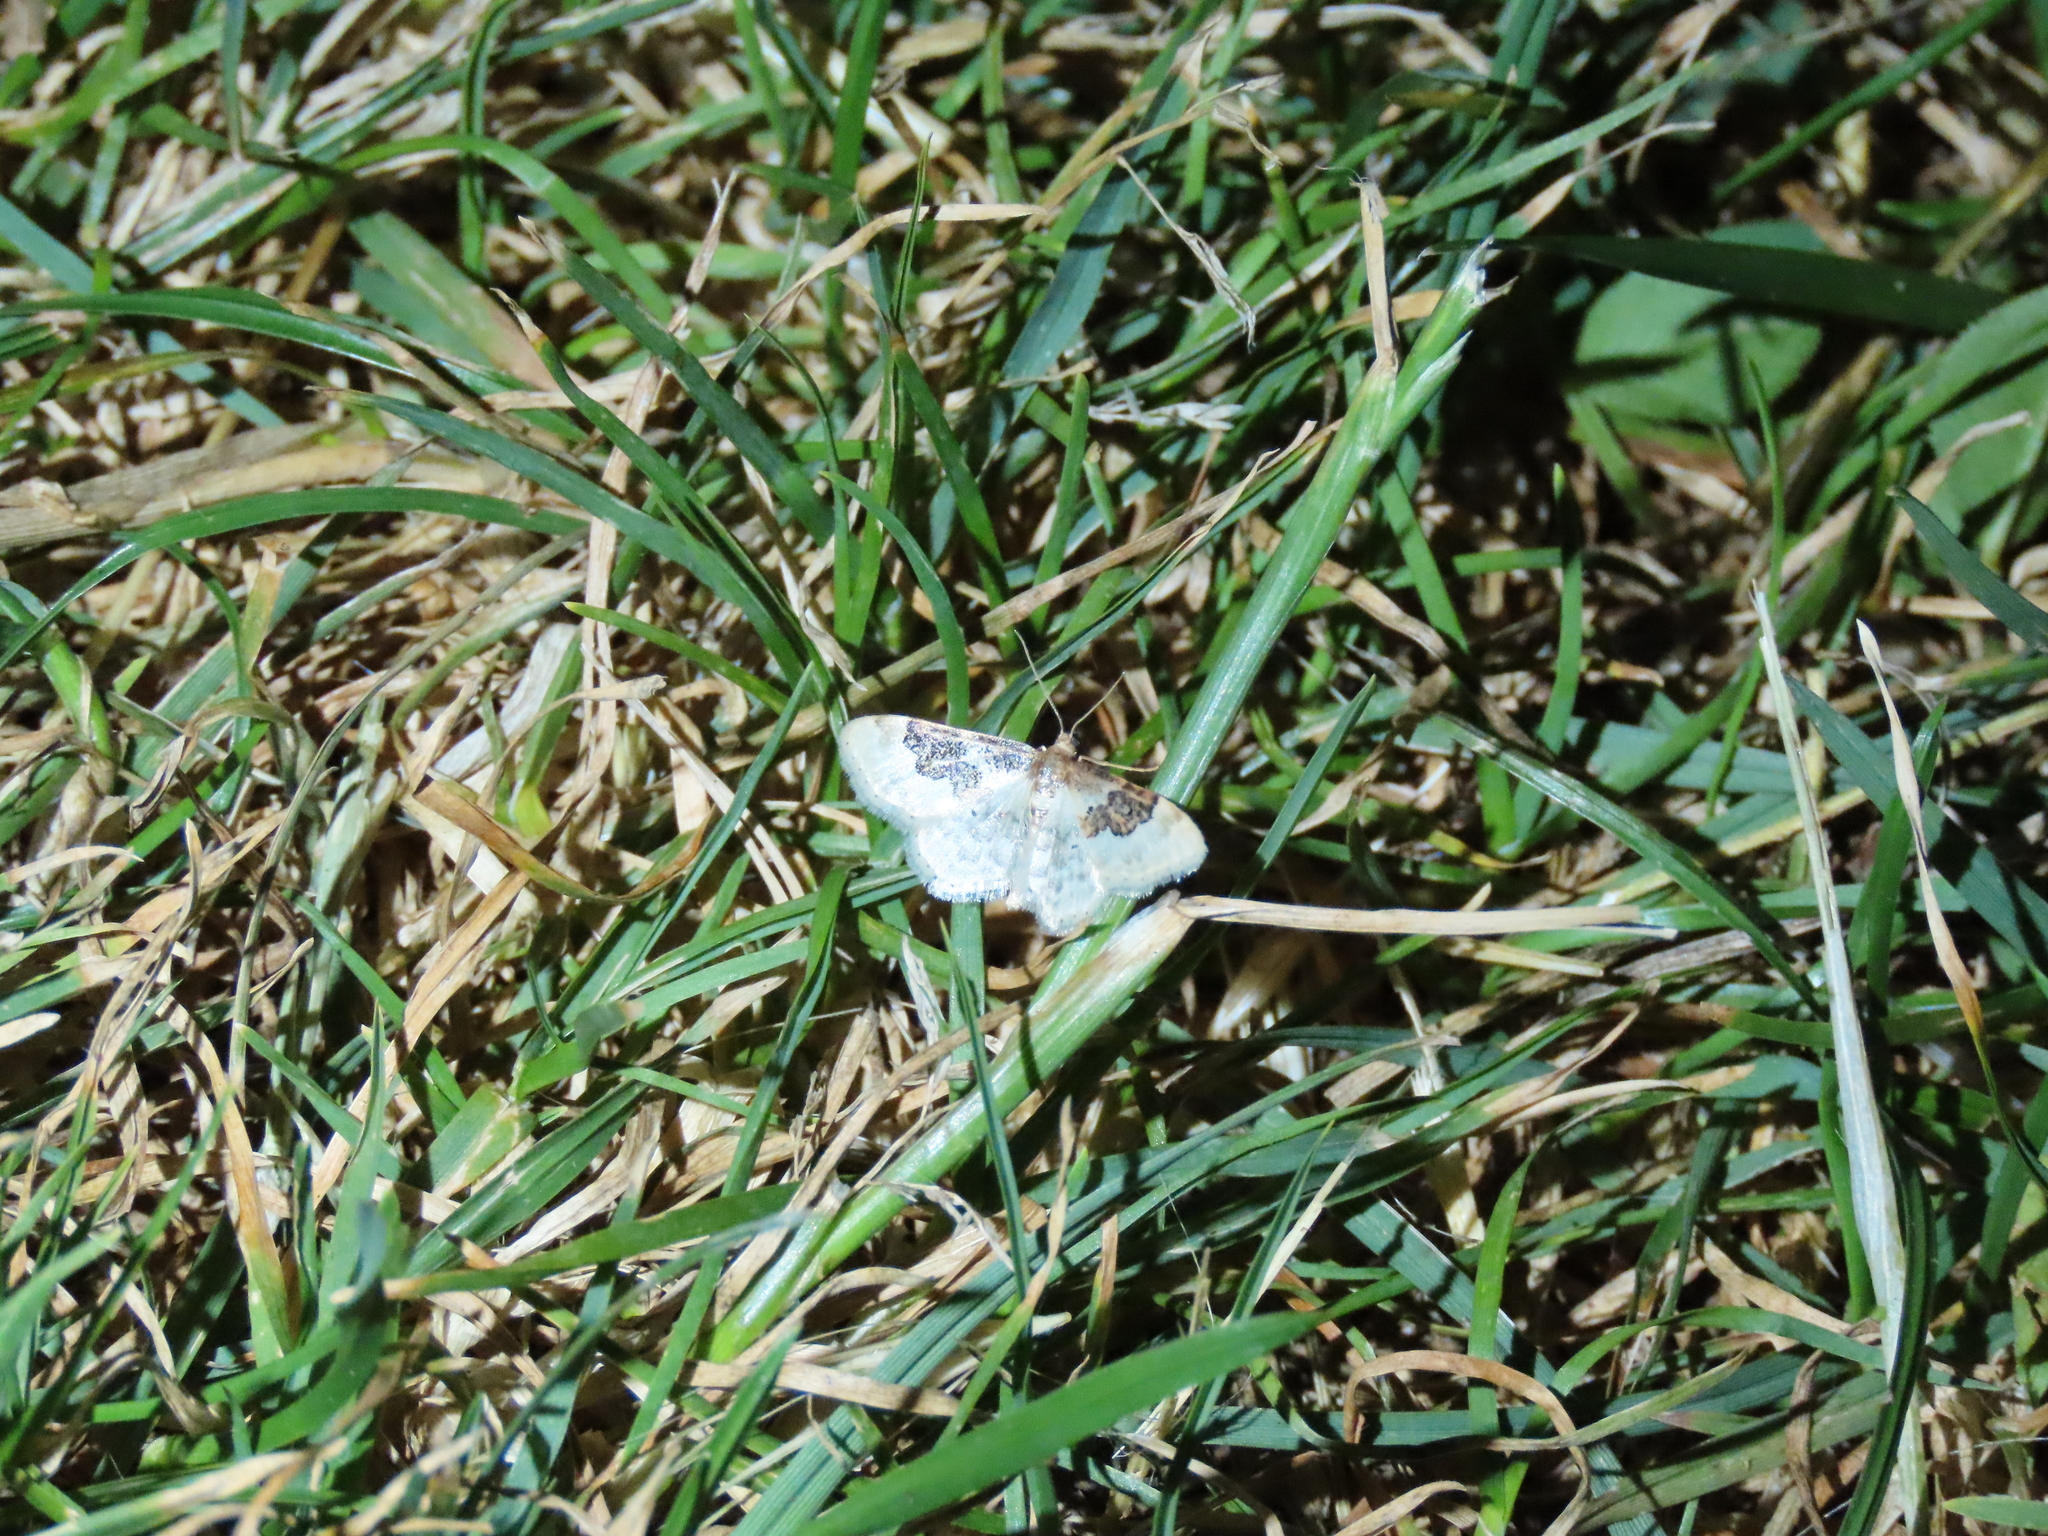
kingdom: Animalia
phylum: Arthropoda
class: Insecta
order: Lepidoptera
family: Geometridae
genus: Idaea
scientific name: Idaea rusticata
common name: Least carpet
